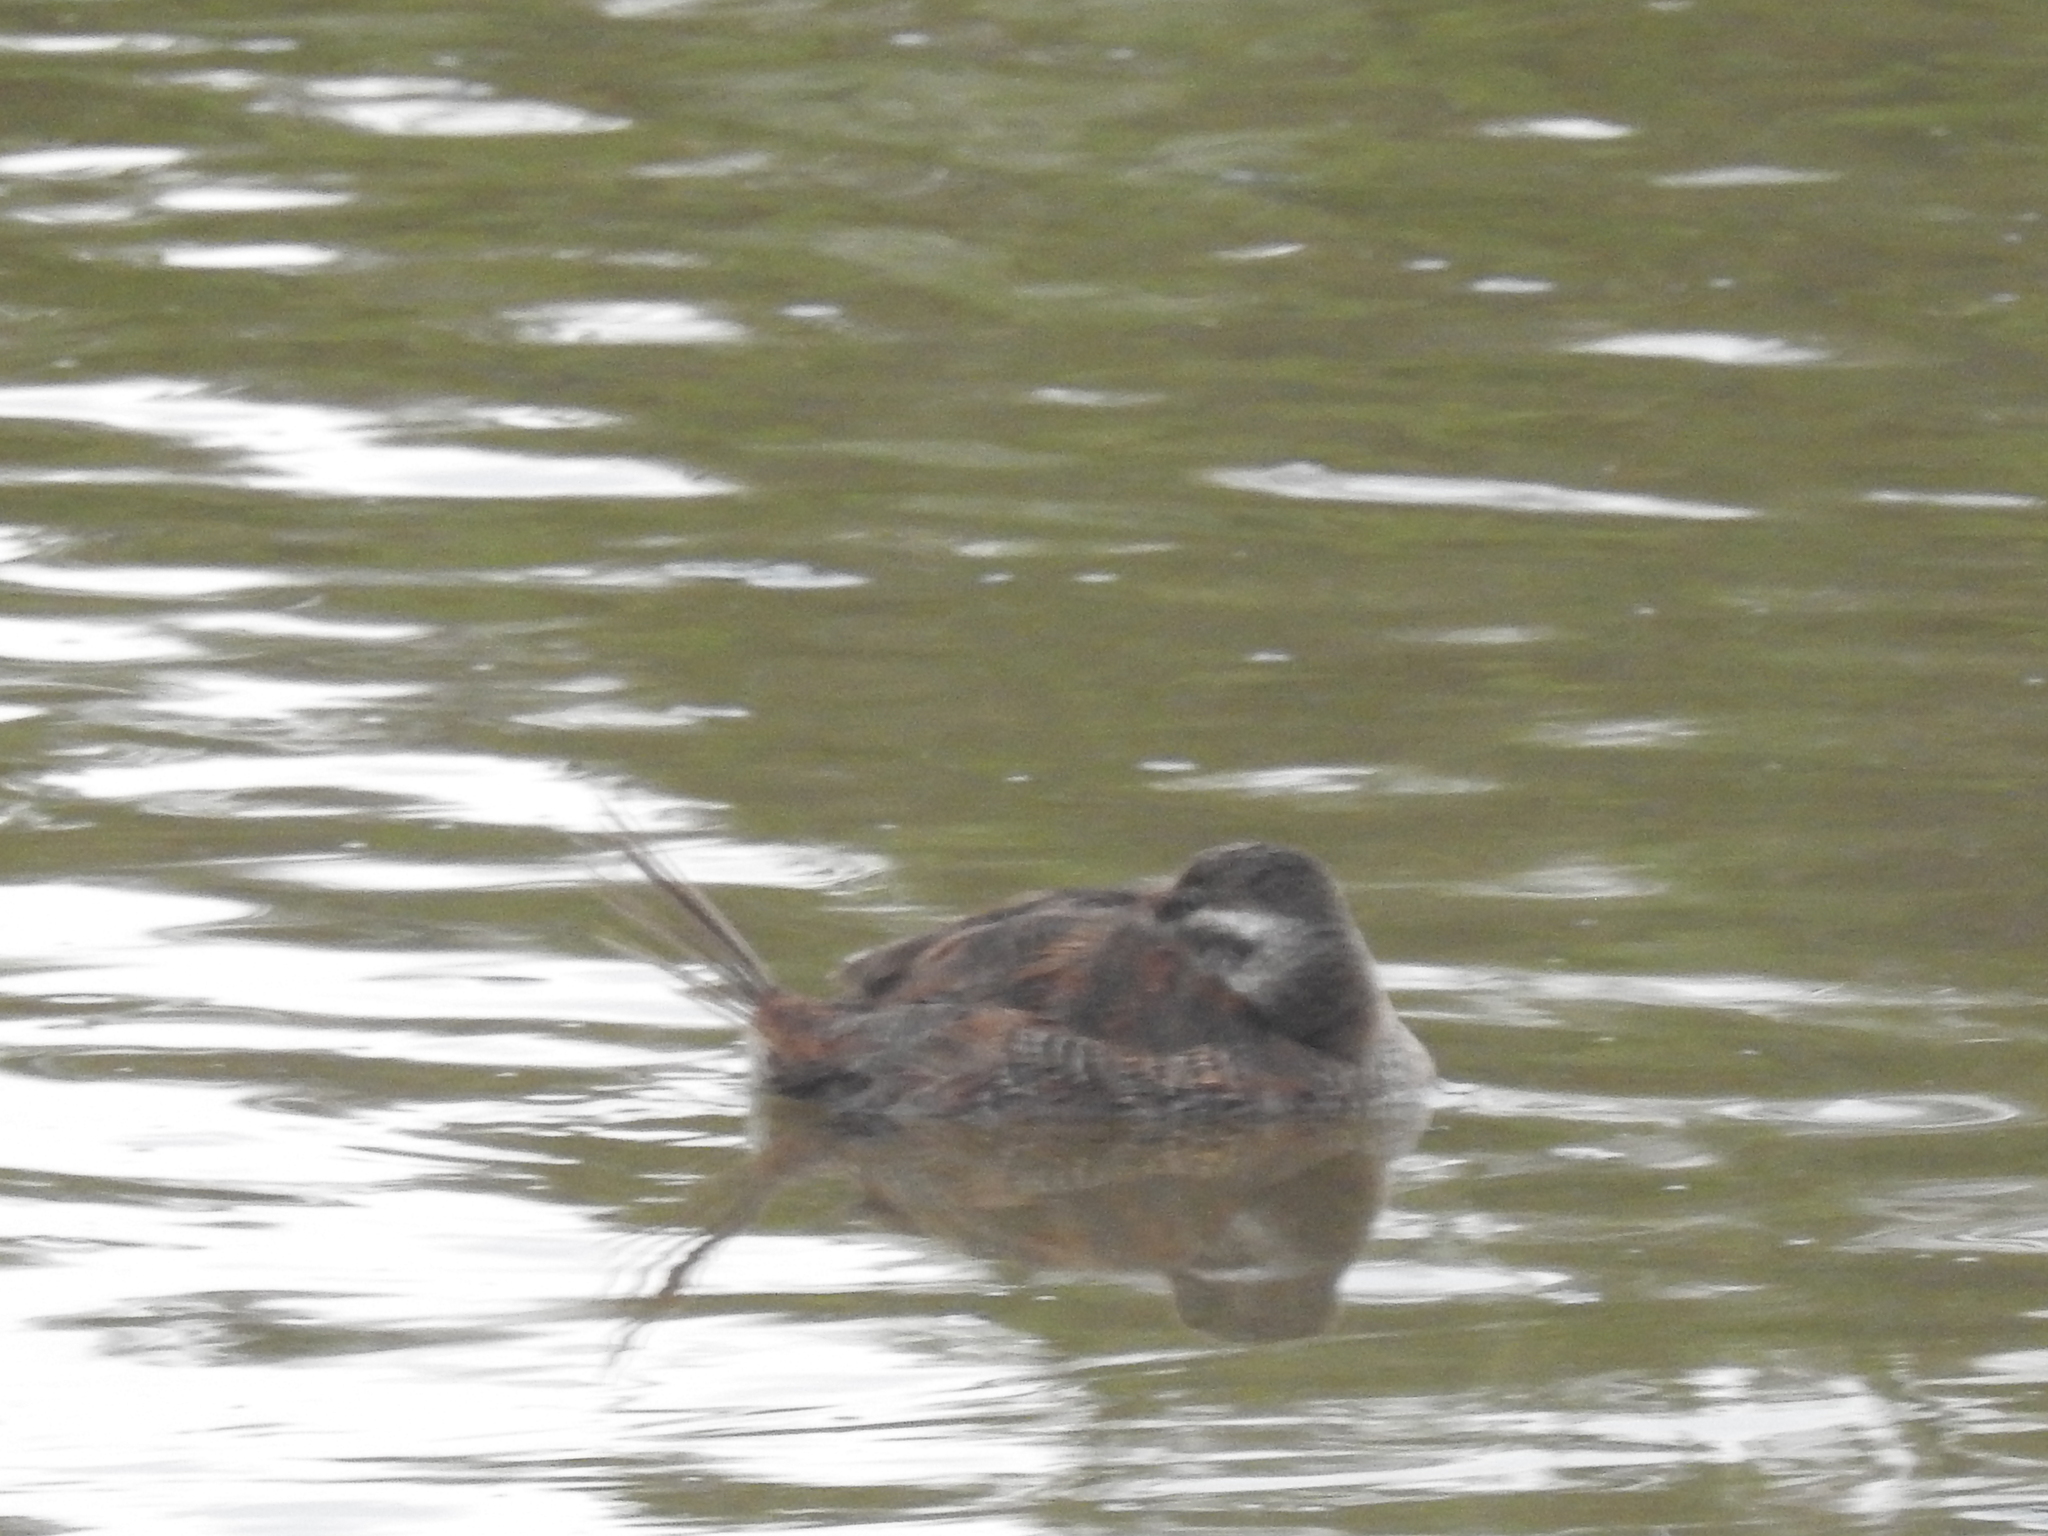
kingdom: Animalia
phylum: Chordata
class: Aves
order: Anseriformes
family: Anatidae
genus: Oxyura
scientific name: Oxyura vittata
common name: Lake duck
